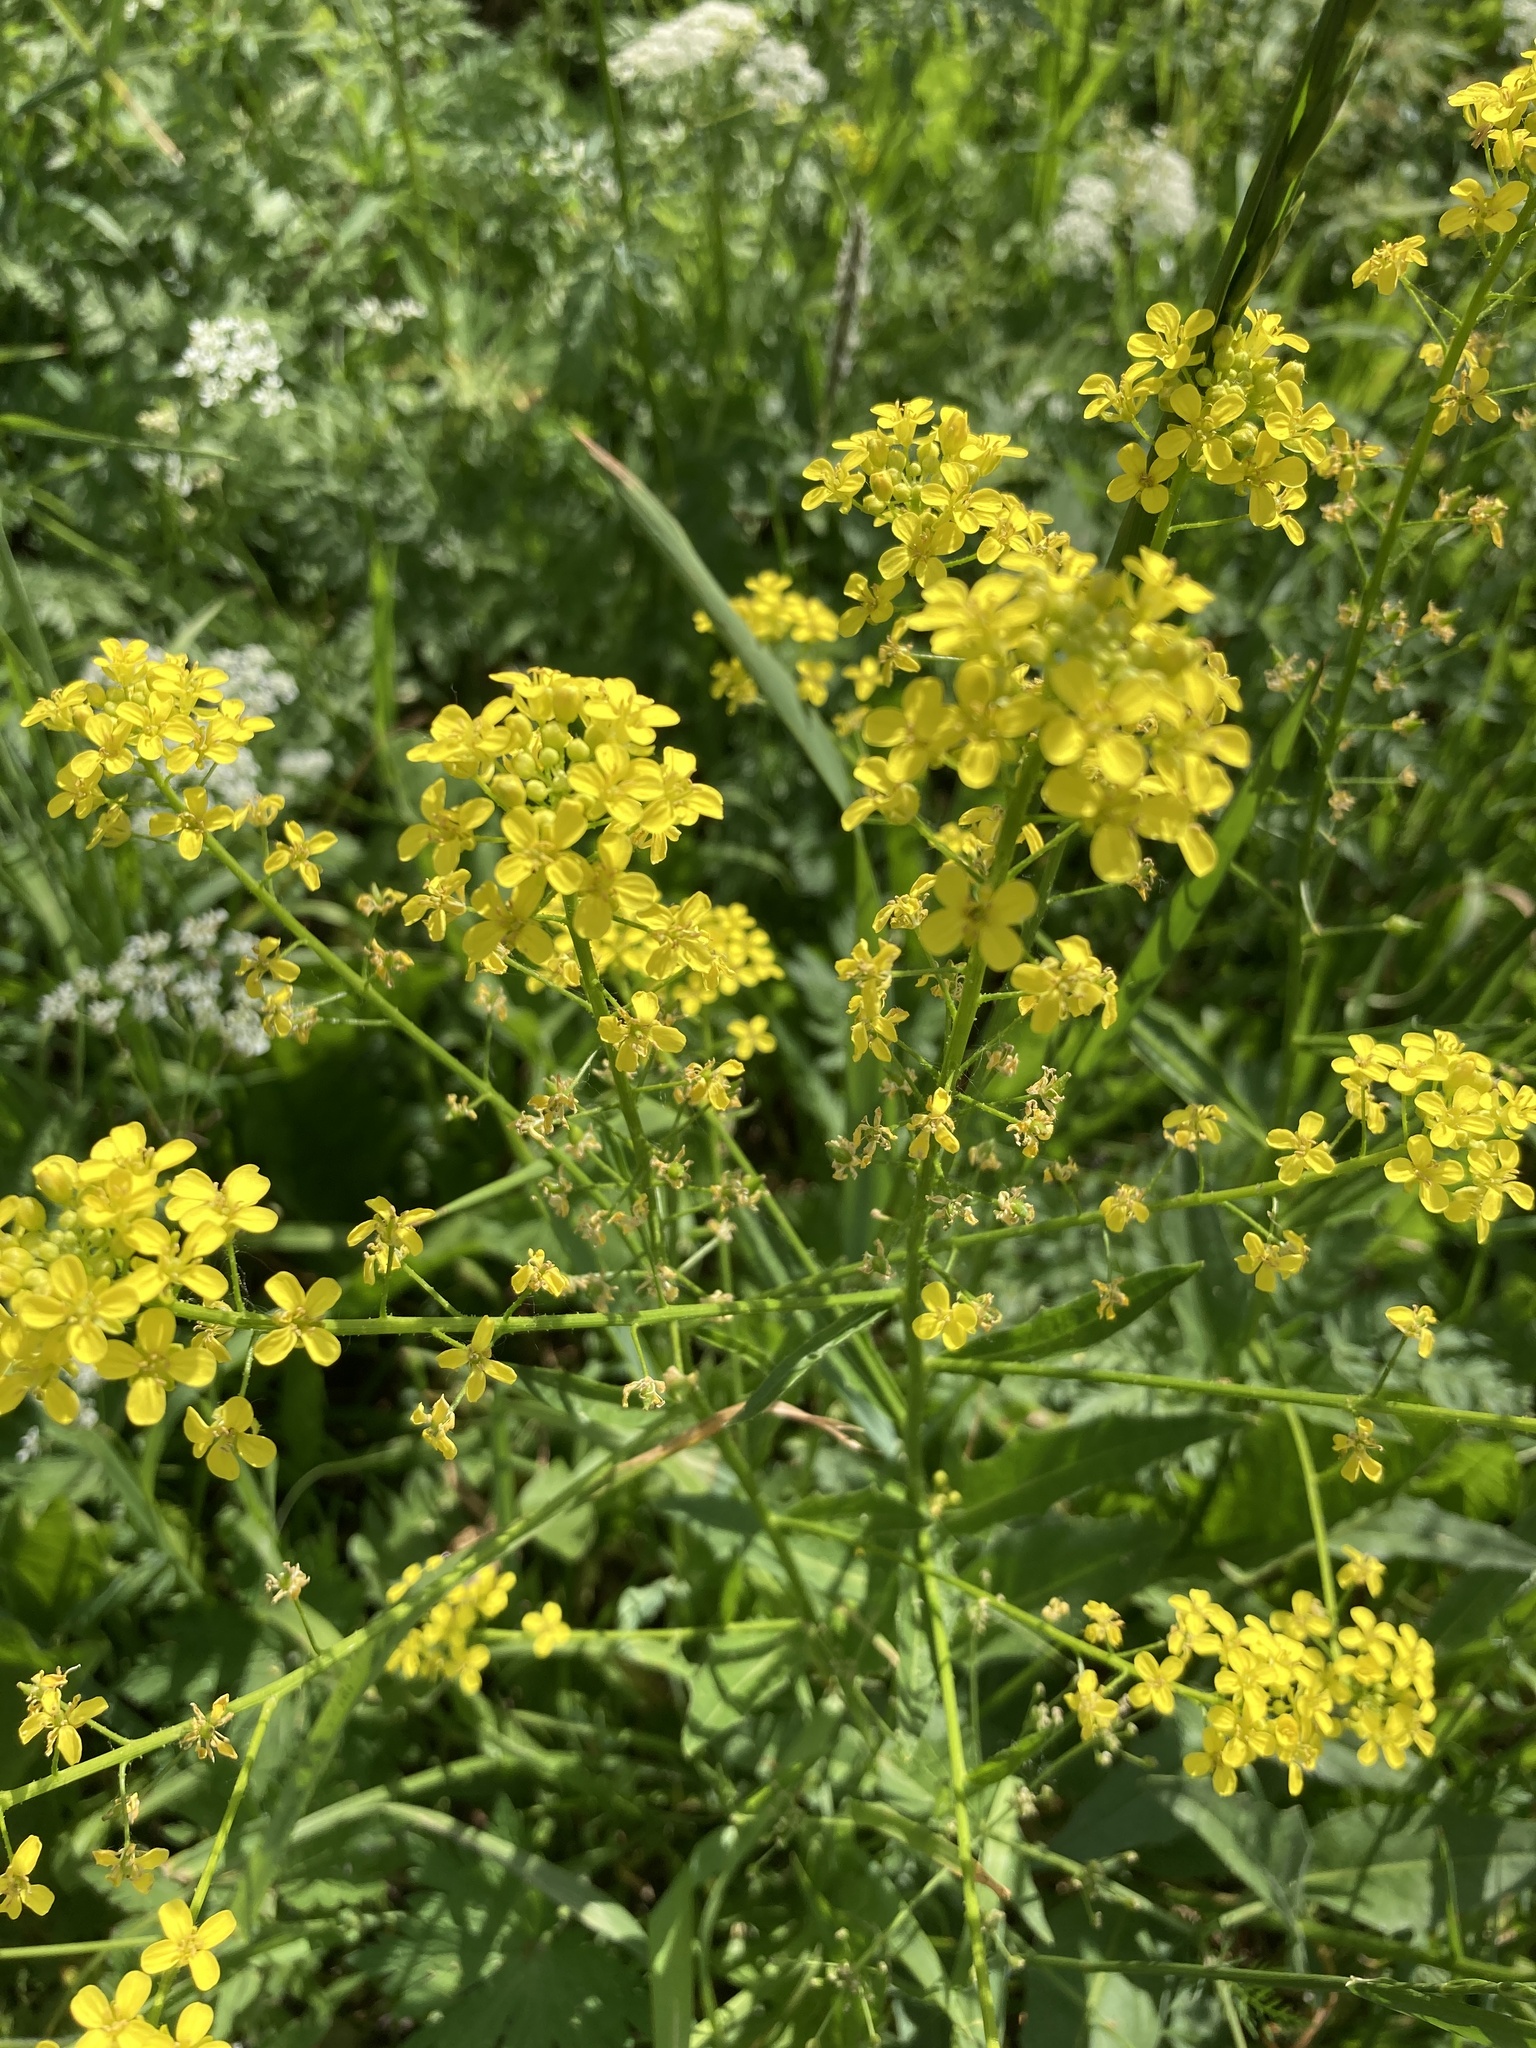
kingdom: Plantae
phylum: Tracheophyta
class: Magnoliopsida
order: Brassicales
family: Brassicaceae
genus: Bunias
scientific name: Bunias orientalis
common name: Warty-cabbage
